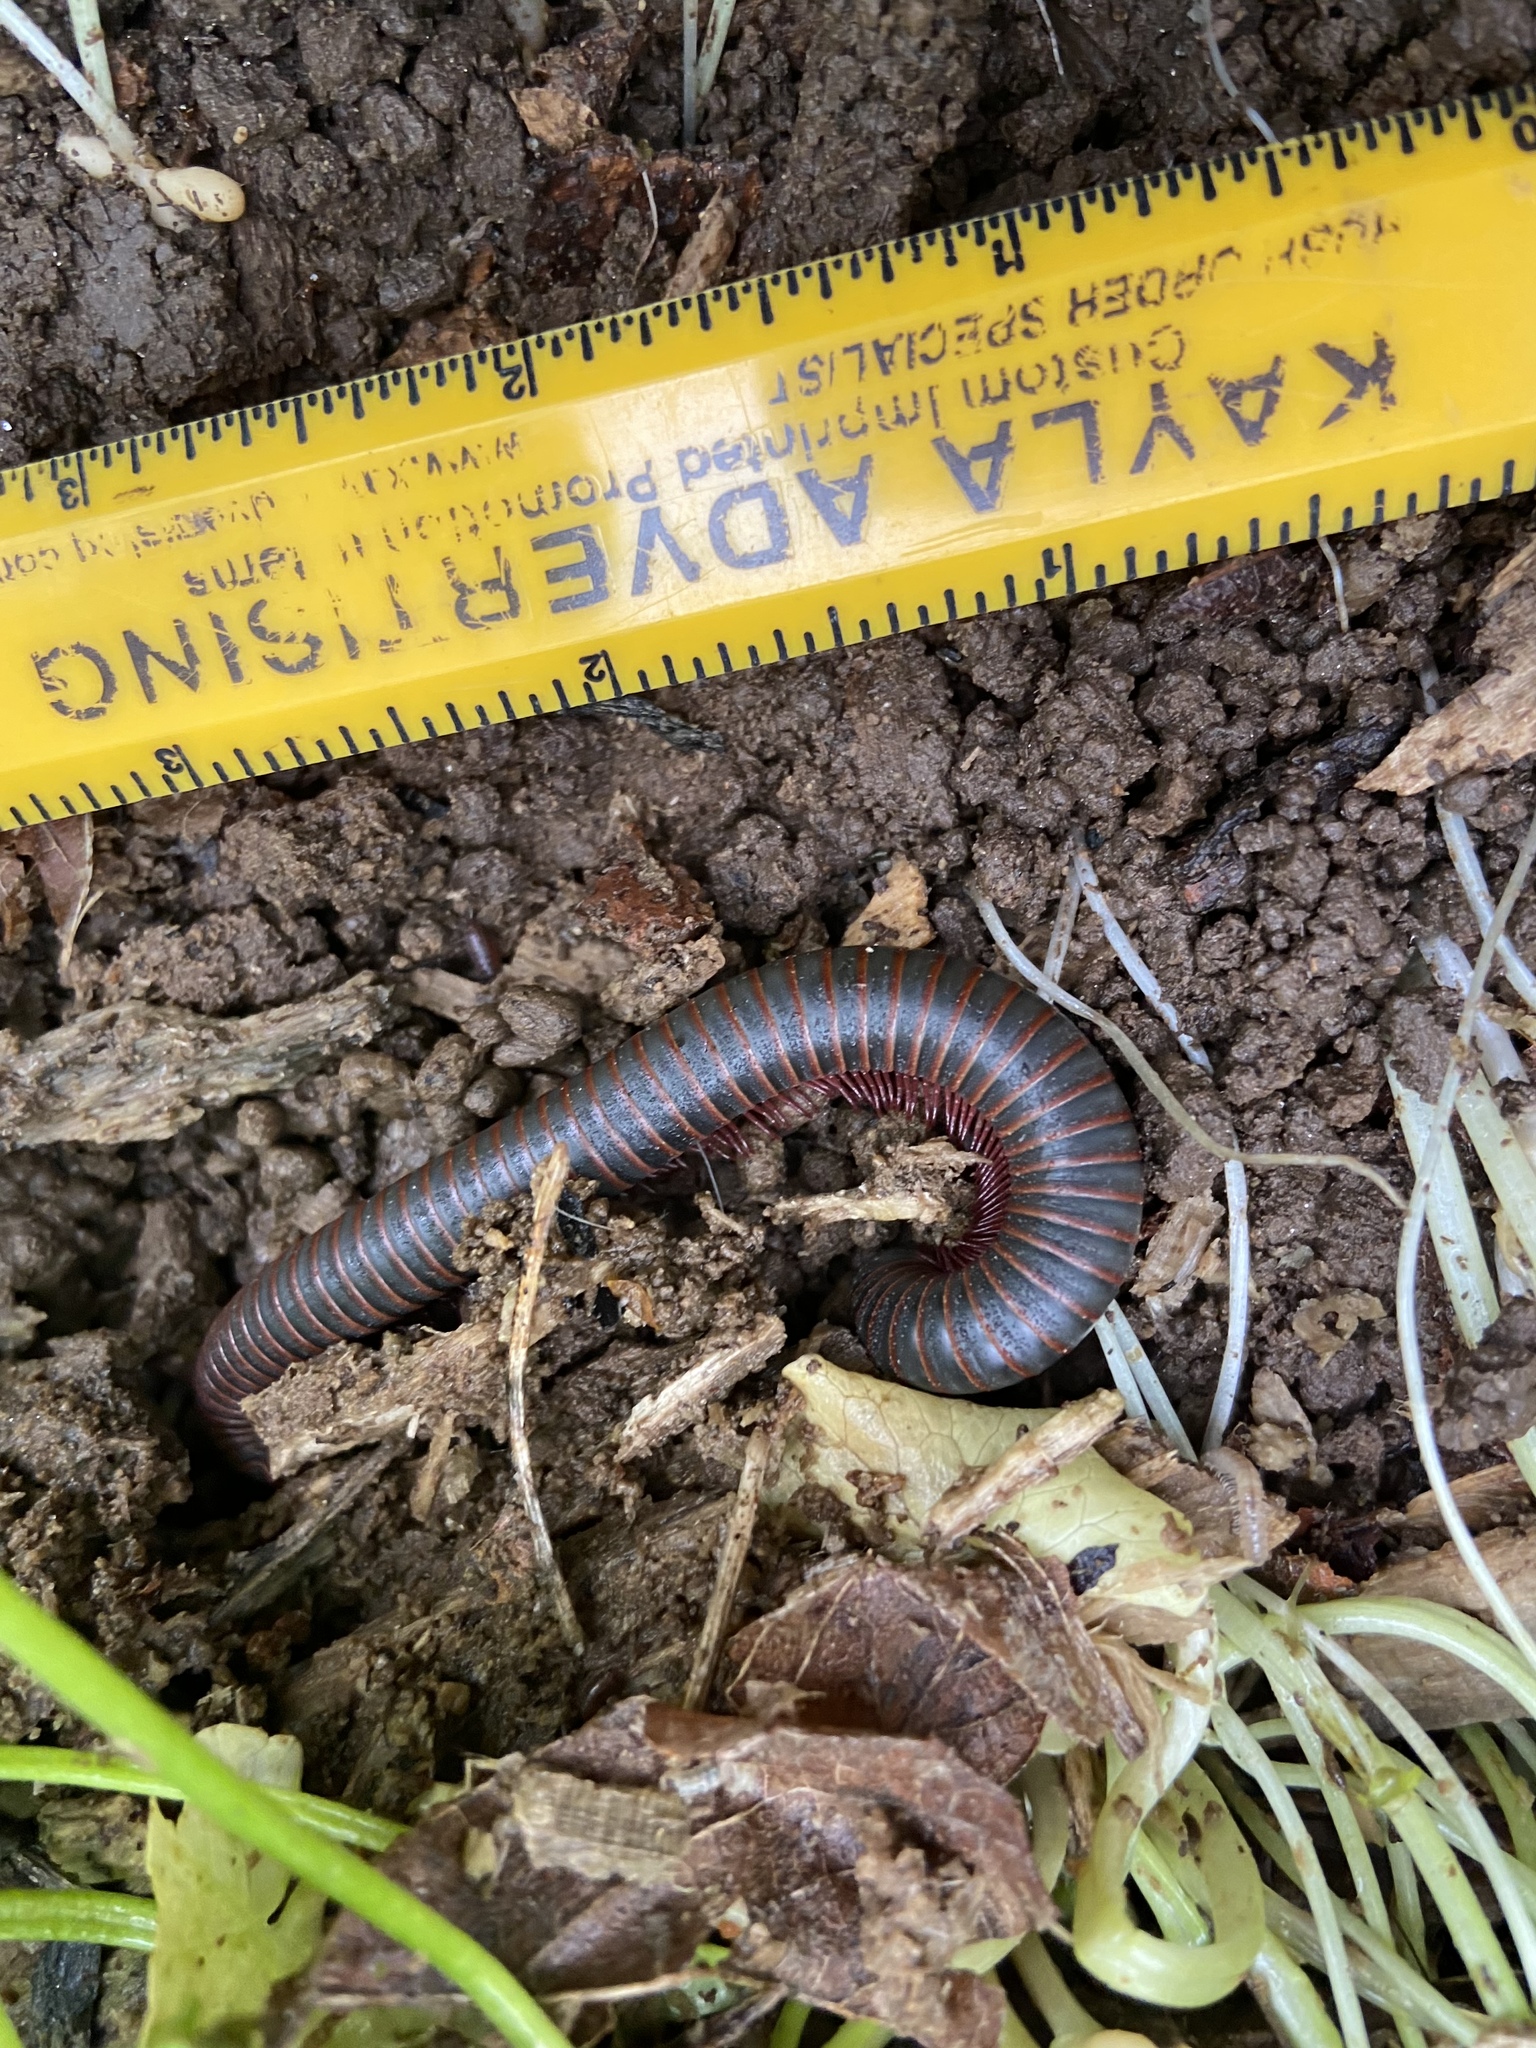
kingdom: Animalia
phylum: Arthropoda
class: Diplopoda
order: Spirobolida
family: Spirobolidae
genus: Narceus
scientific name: Narceus
